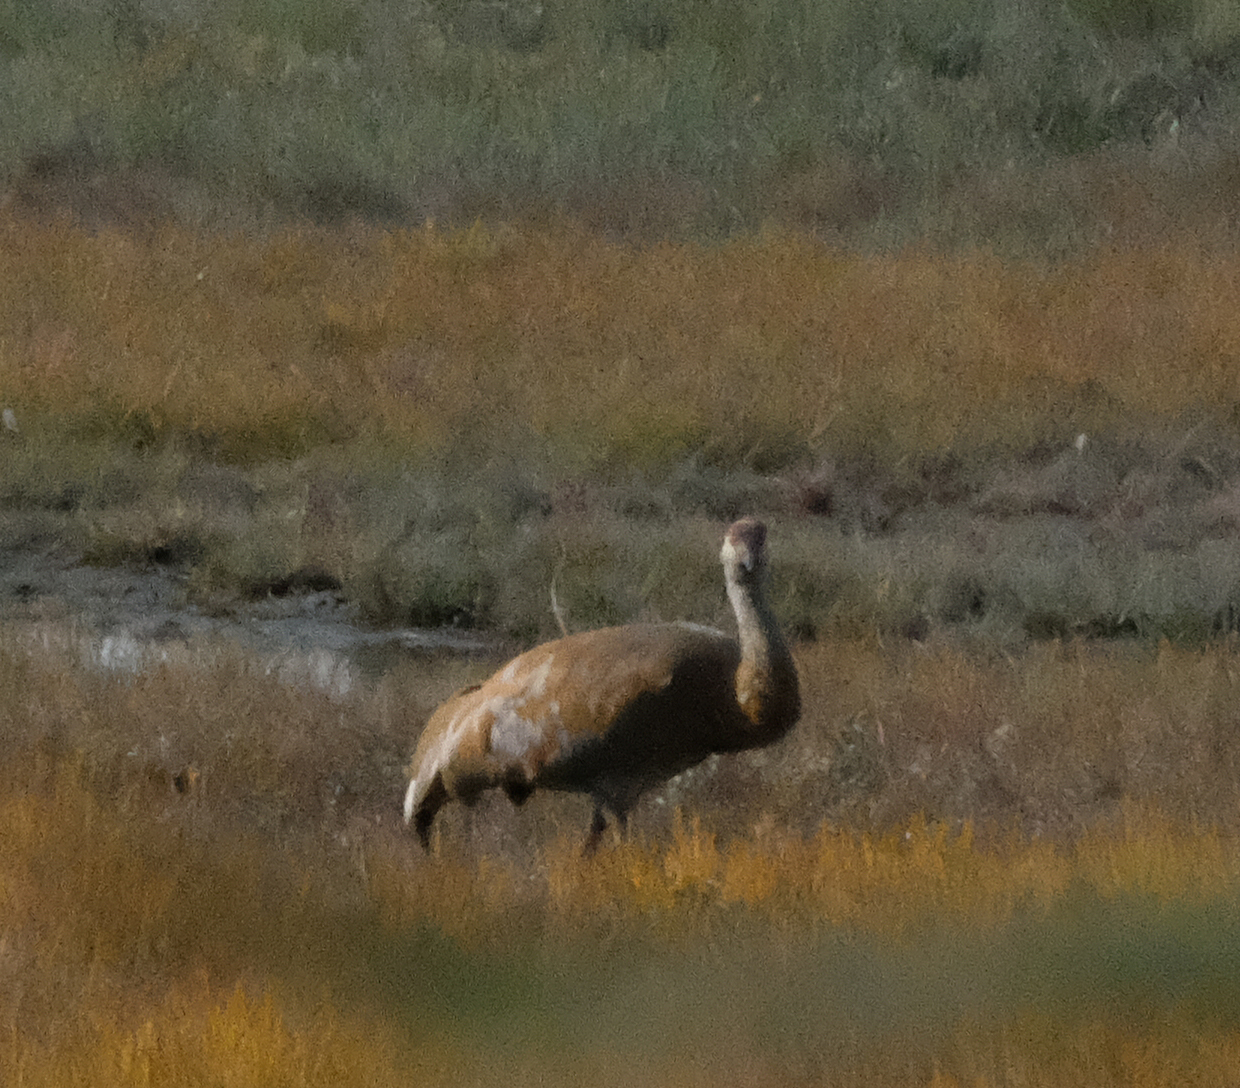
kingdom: Animalia
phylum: Chordata
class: Aves
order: Gruiformes
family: Gruidae
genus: Grus
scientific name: Grus canadensis
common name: Sandhill crane
